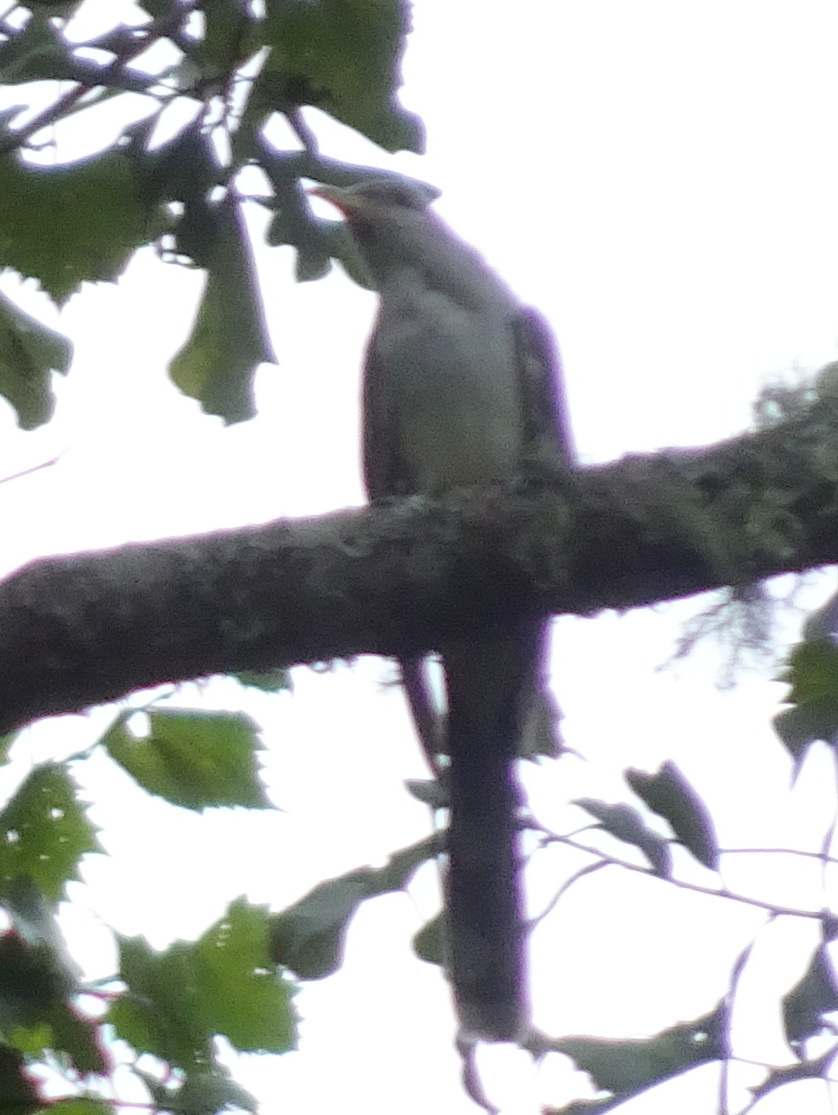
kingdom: Animalia
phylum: Chordata
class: Aves
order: Cuculiformes
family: Cuculidae
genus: Coccyzus
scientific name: Coccyzus americanus
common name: Yellow-billed cuckoo
